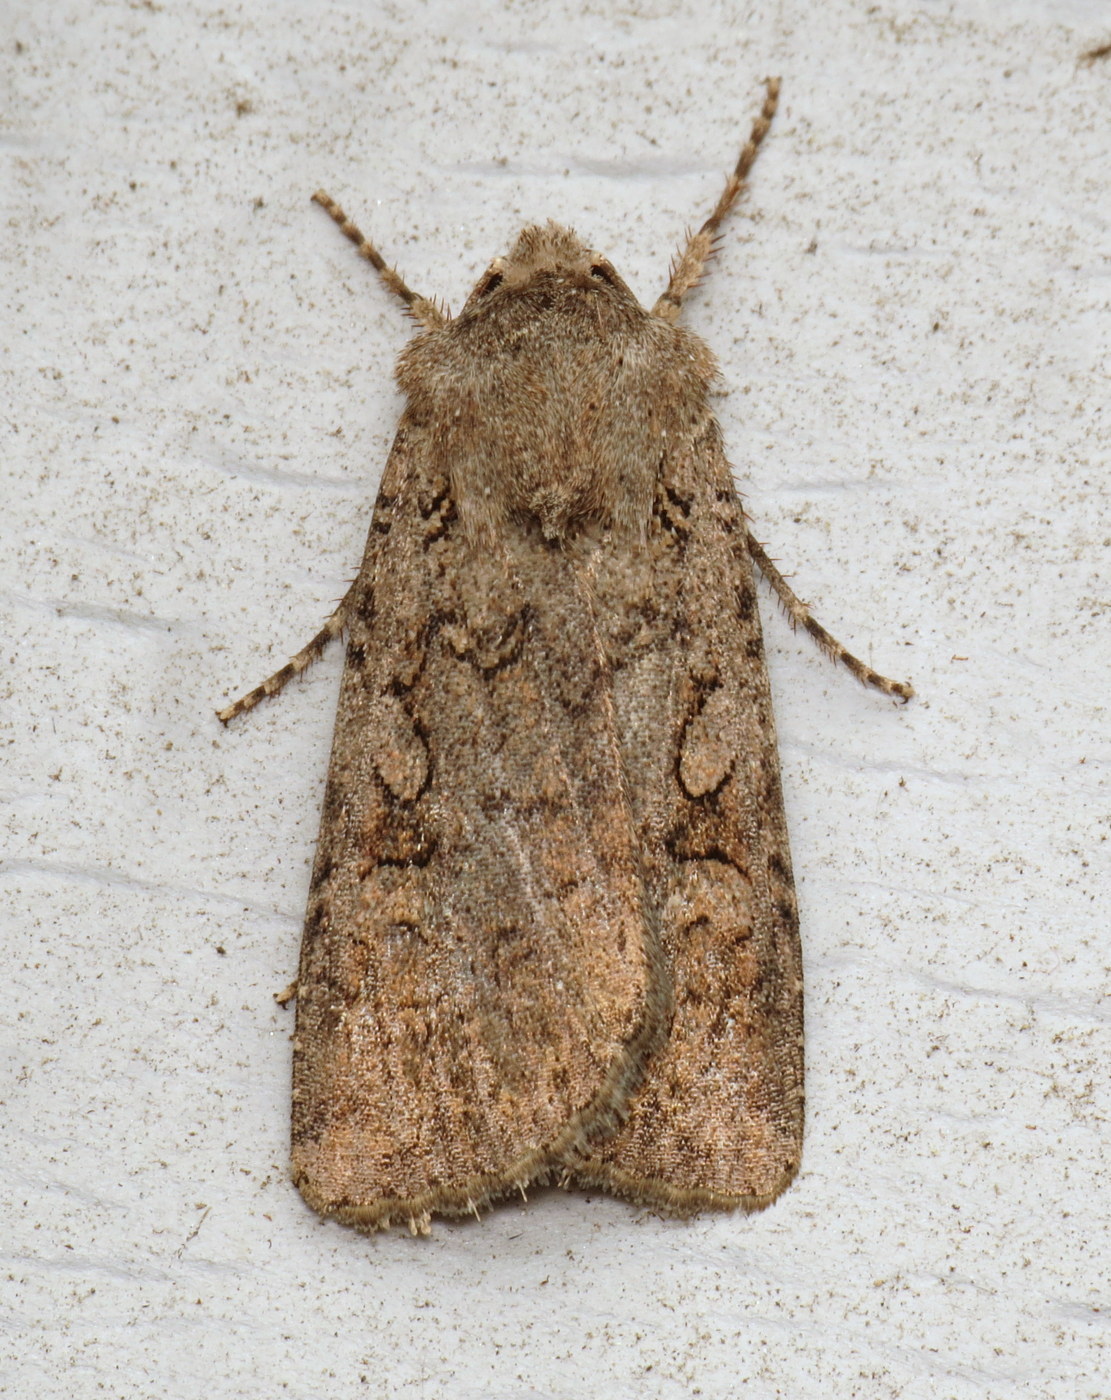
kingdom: Animalia
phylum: Arthropoda
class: Insecta
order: Lepidoptera
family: Noctuidae
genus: Euxoa
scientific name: Euxoa messoria
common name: Darksided cutworm
